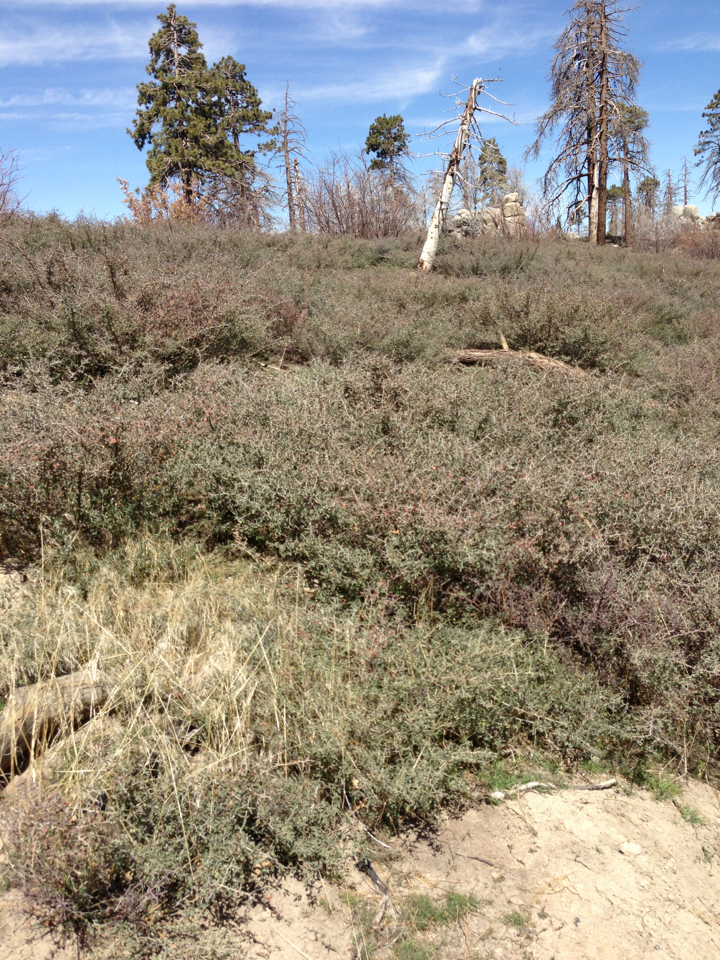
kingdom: Plantae
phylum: Tracheophyta
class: Magnoliopsida
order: Rosales
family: Rhamnaceae
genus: Ceanothus
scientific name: Ceanothus cordulatus
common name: Mountain whitethorn
